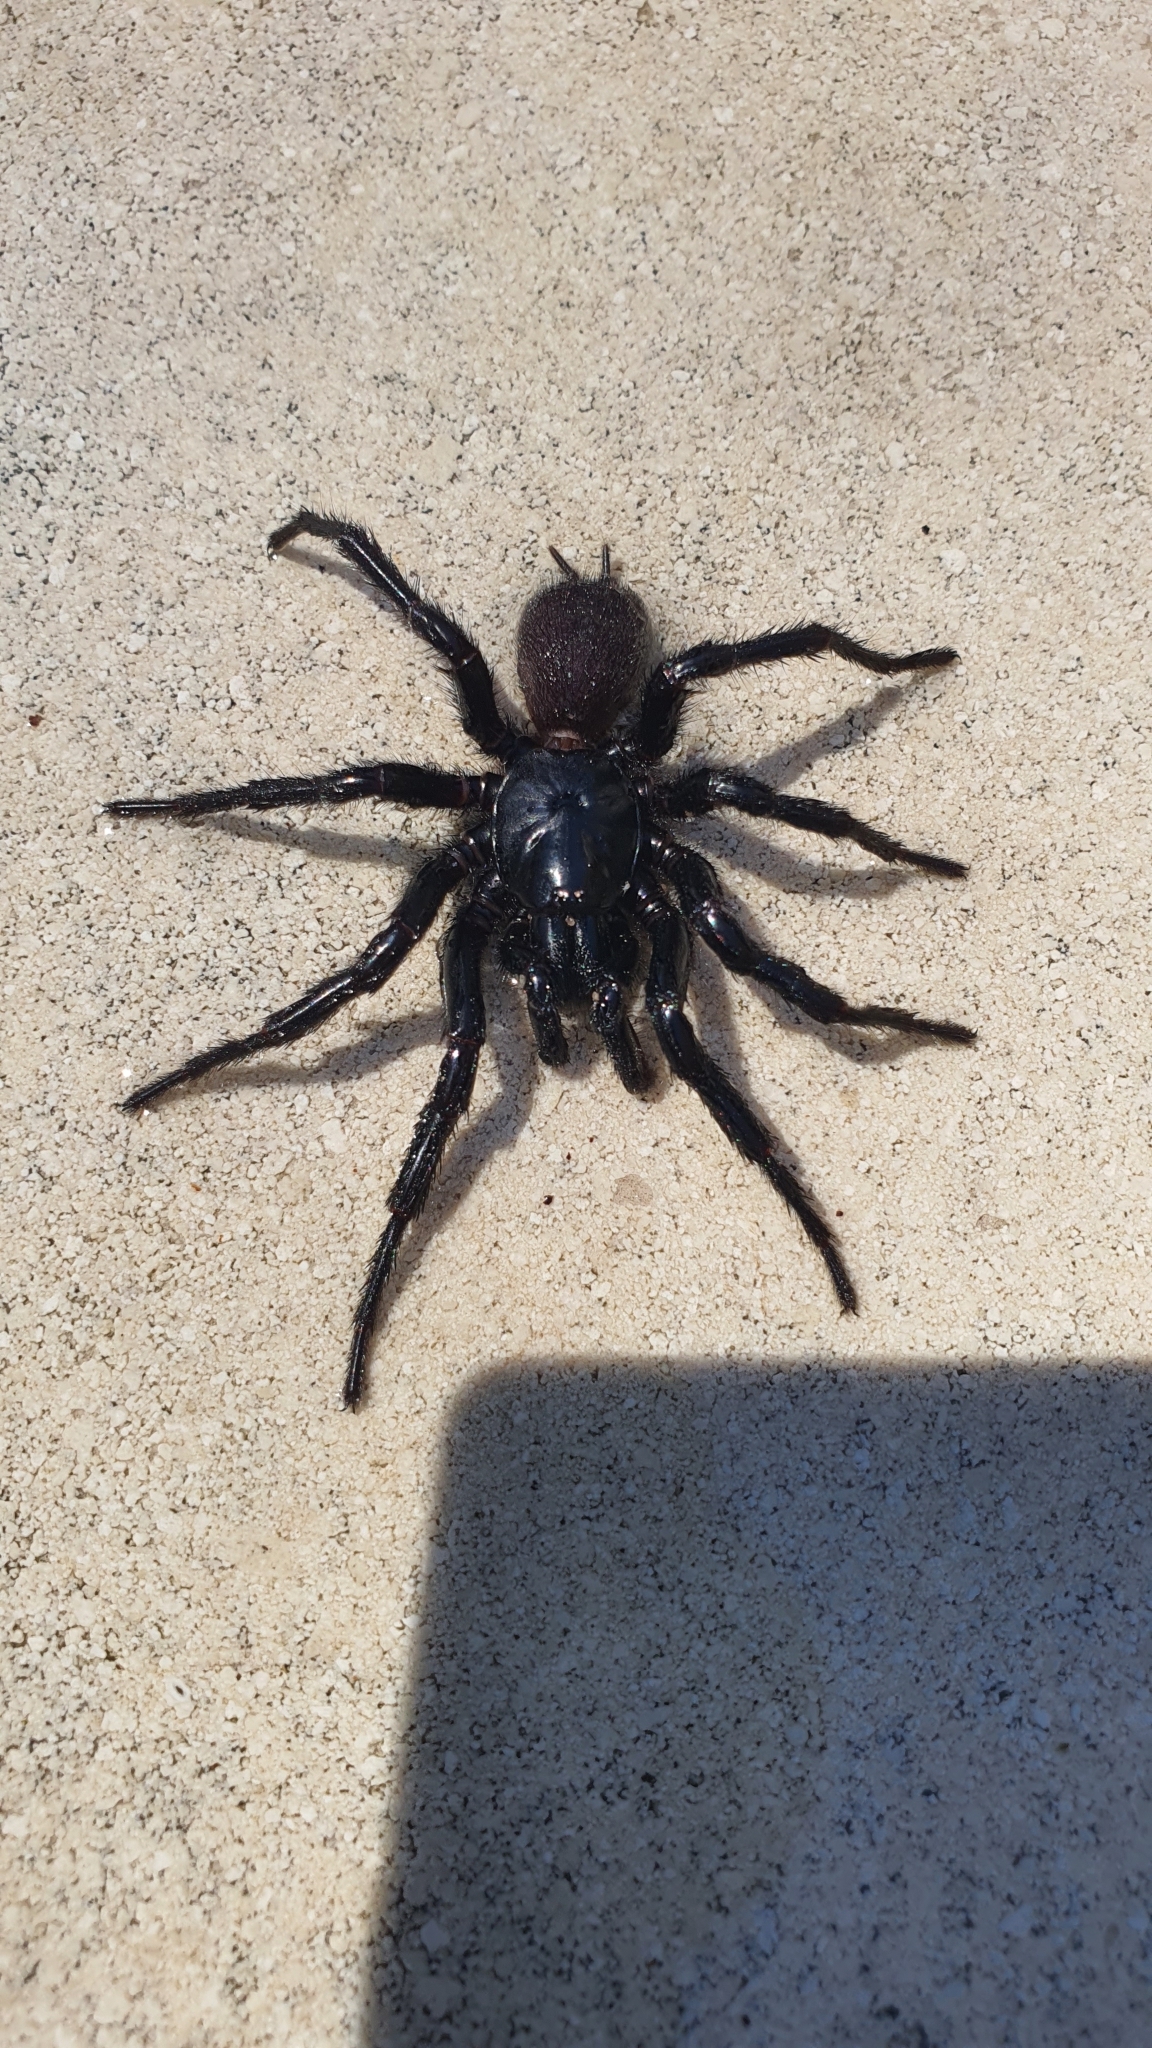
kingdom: Animalia
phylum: Arthropoda
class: Arachnida
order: Araneae
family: Atracidae
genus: Atrax
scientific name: Atrax robustus
